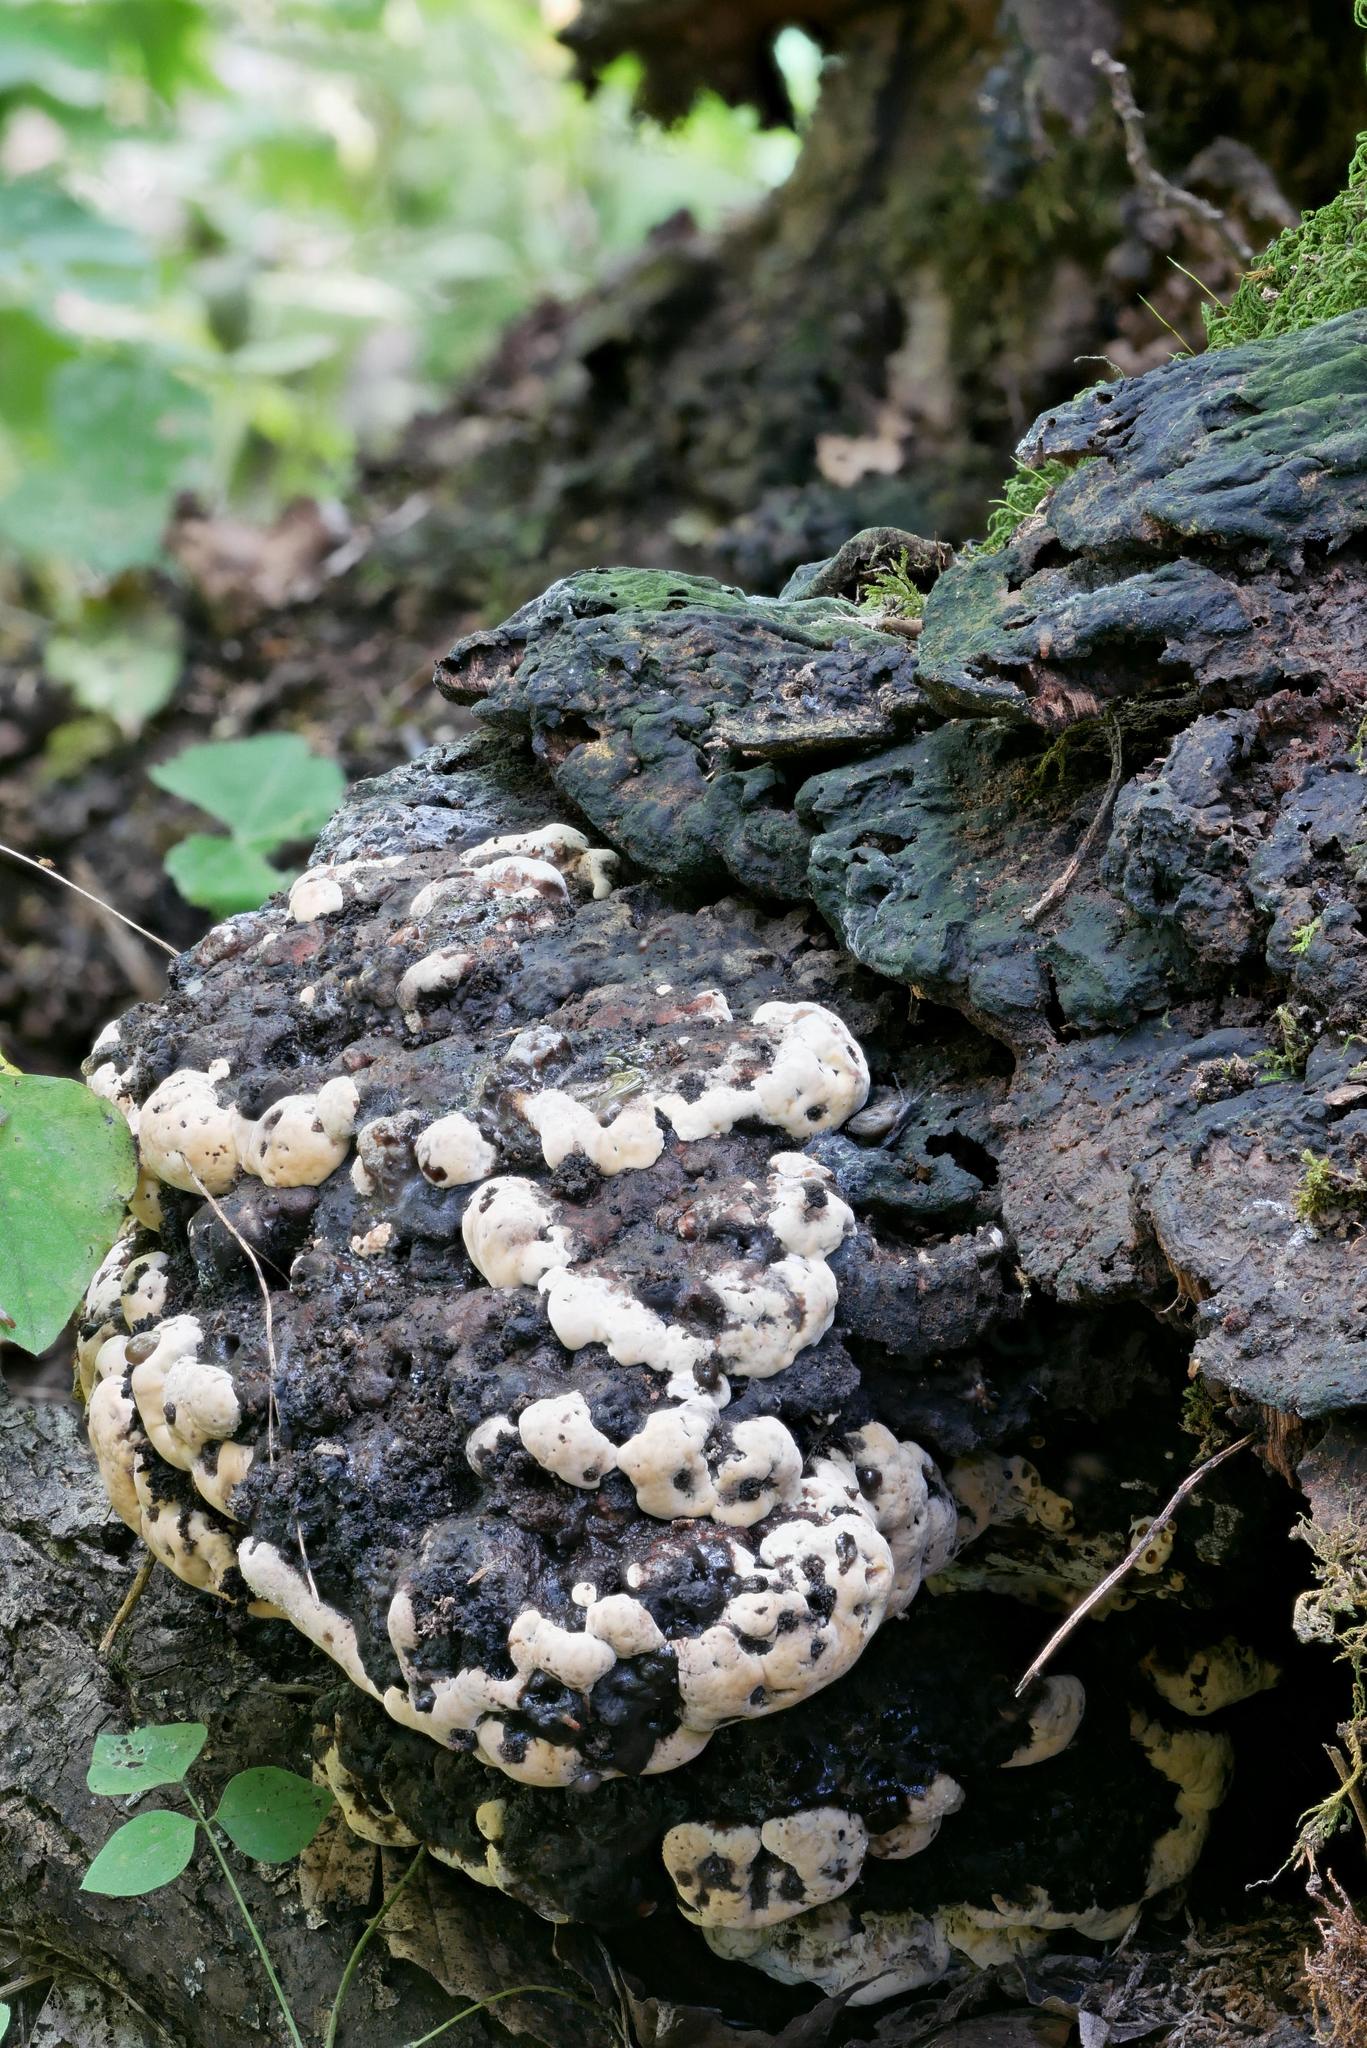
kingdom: Fungi
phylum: Basidiomycota
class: Agaricomycetes
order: Polyporales
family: Polyporaceae
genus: Vanderbylia
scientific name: Vanderbylia fraxinea
